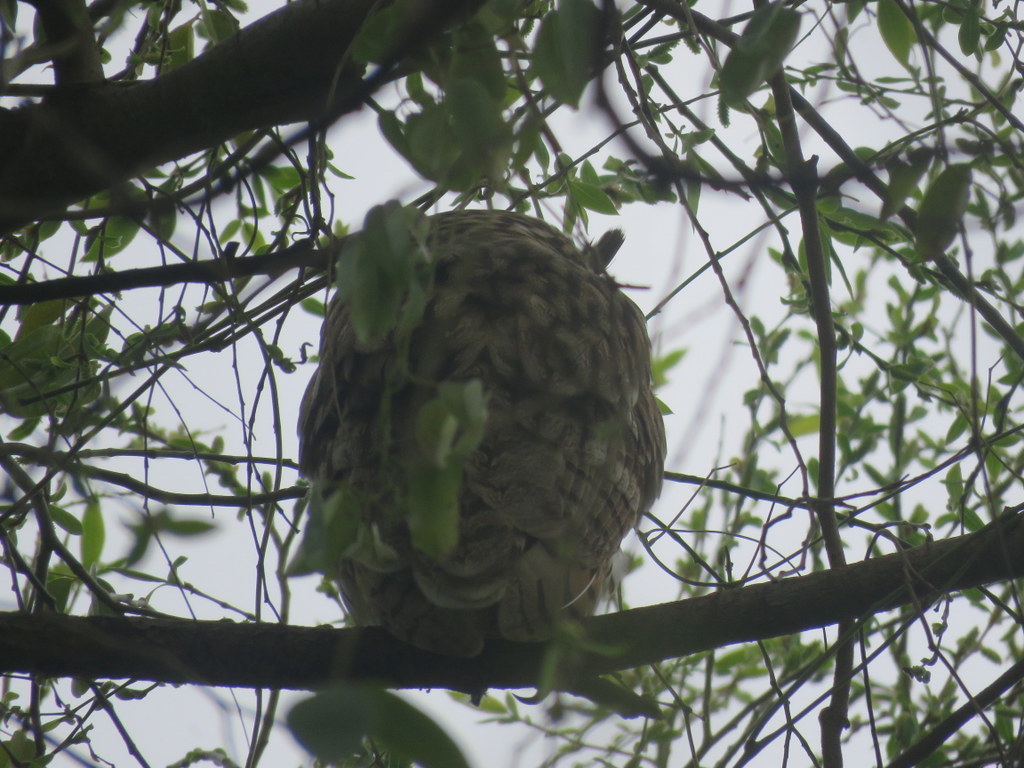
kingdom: Animalia
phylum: Chordata
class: Aves
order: Strigiformes
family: Strigidae
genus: Pseudoscops
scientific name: Pseudoscops clamator
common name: Striped owl
